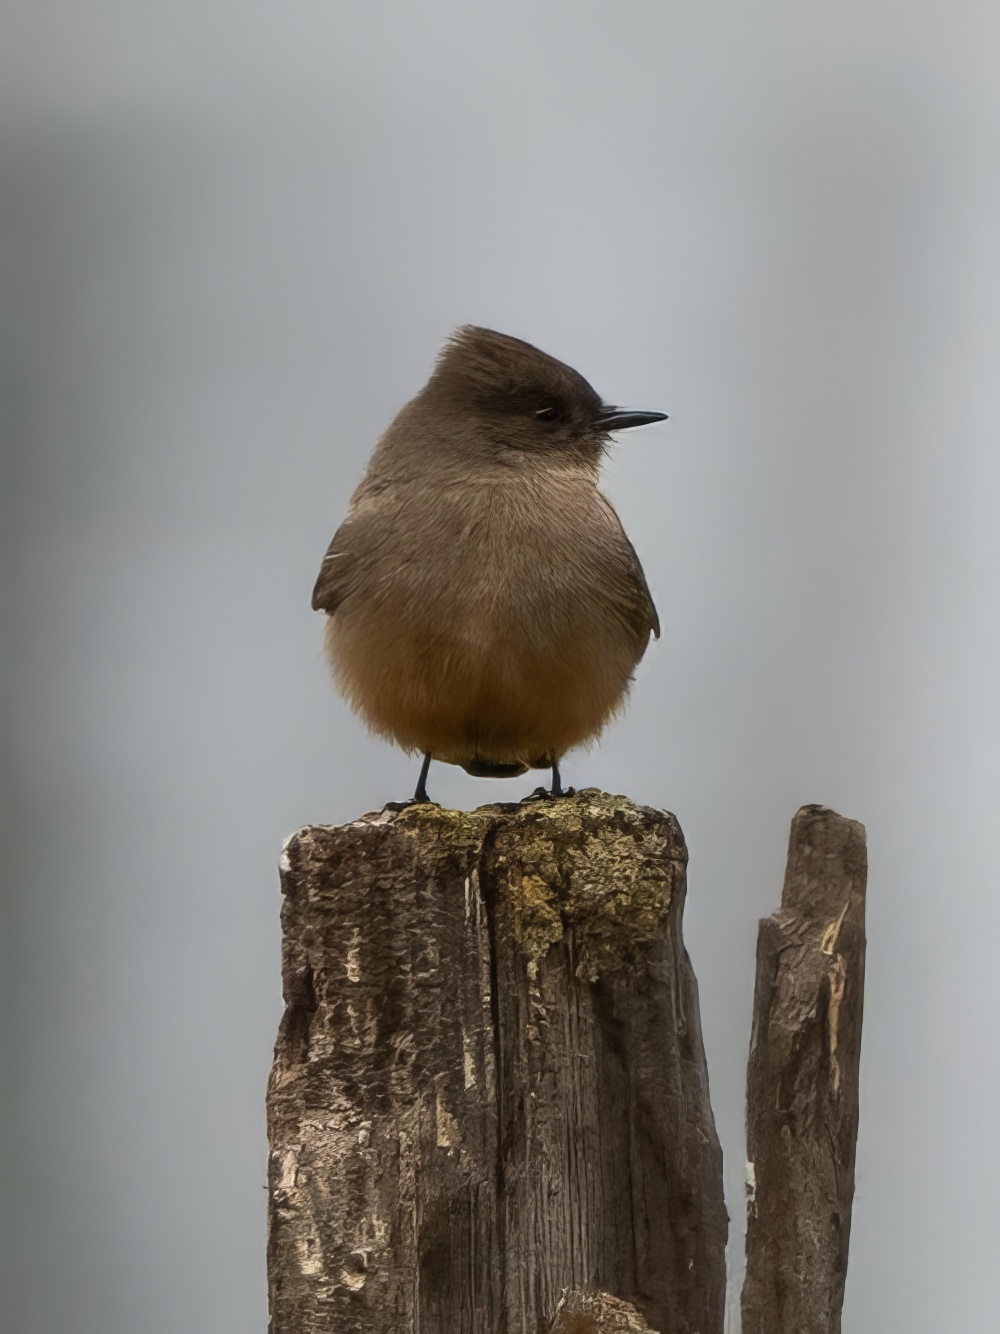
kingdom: Animalia
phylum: Chordata
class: Aves
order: Passeriformes
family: Tyrannidae
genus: Sayornis
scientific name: Sayornis saya
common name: Say's phoebe
